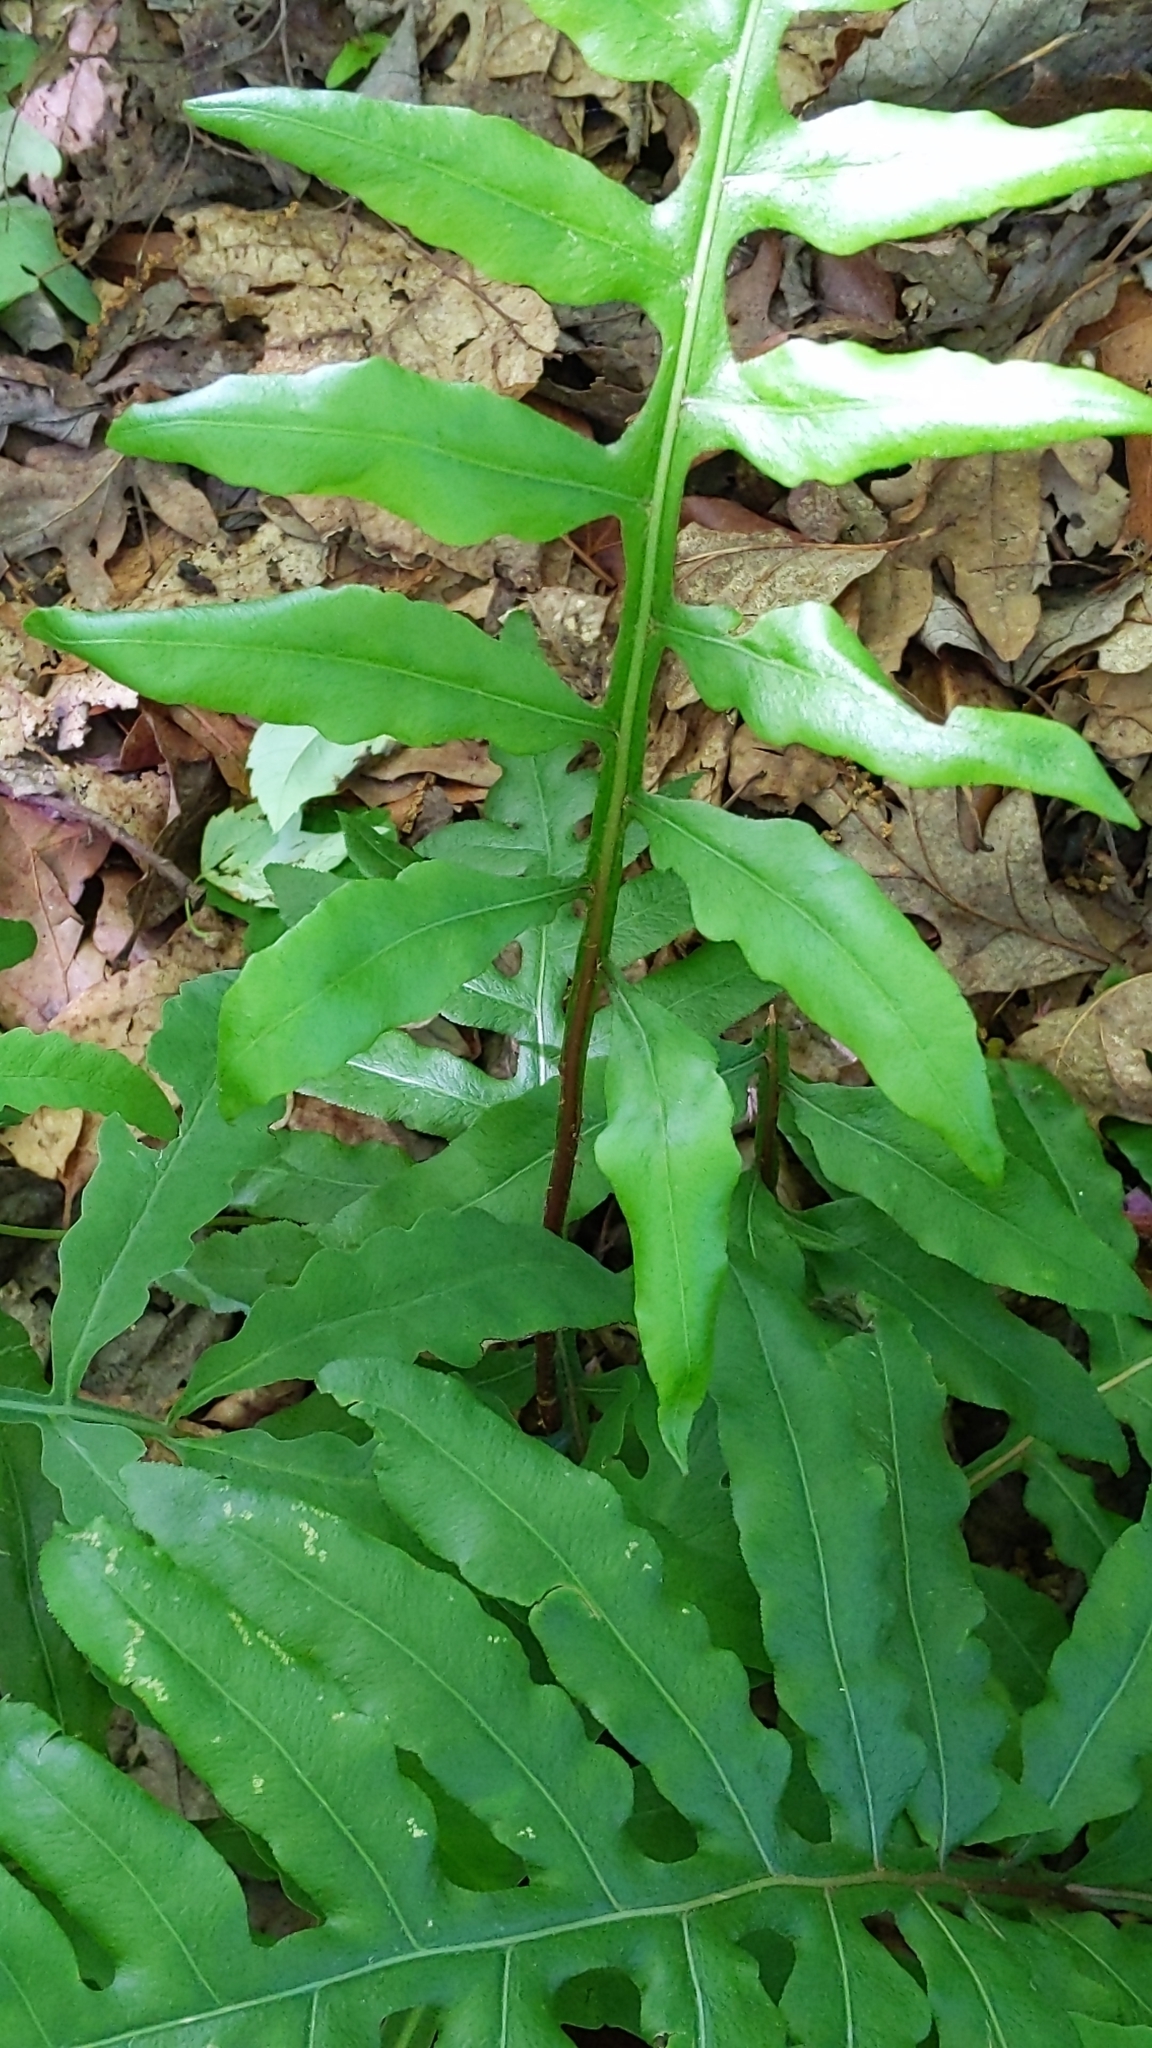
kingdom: Plantae
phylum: Tracheophyta
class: Polypodiopsida
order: Polypodiales
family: Blechnaceae
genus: Lorinseria
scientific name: Lorinseria areolata
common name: Dwarf chain fern
